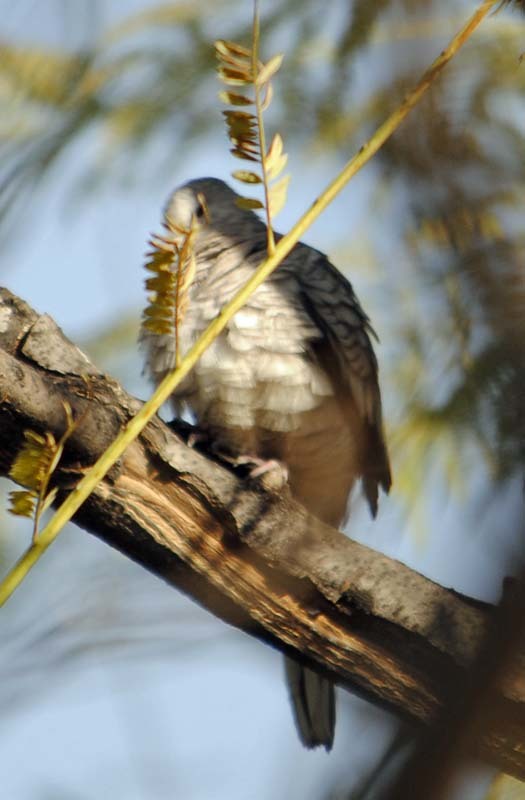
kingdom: Animalia
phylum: Chordata
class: Aves
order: Columbiformes
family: Columbidae
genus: Columbina
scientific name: Columbina inca
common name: Inca dove
